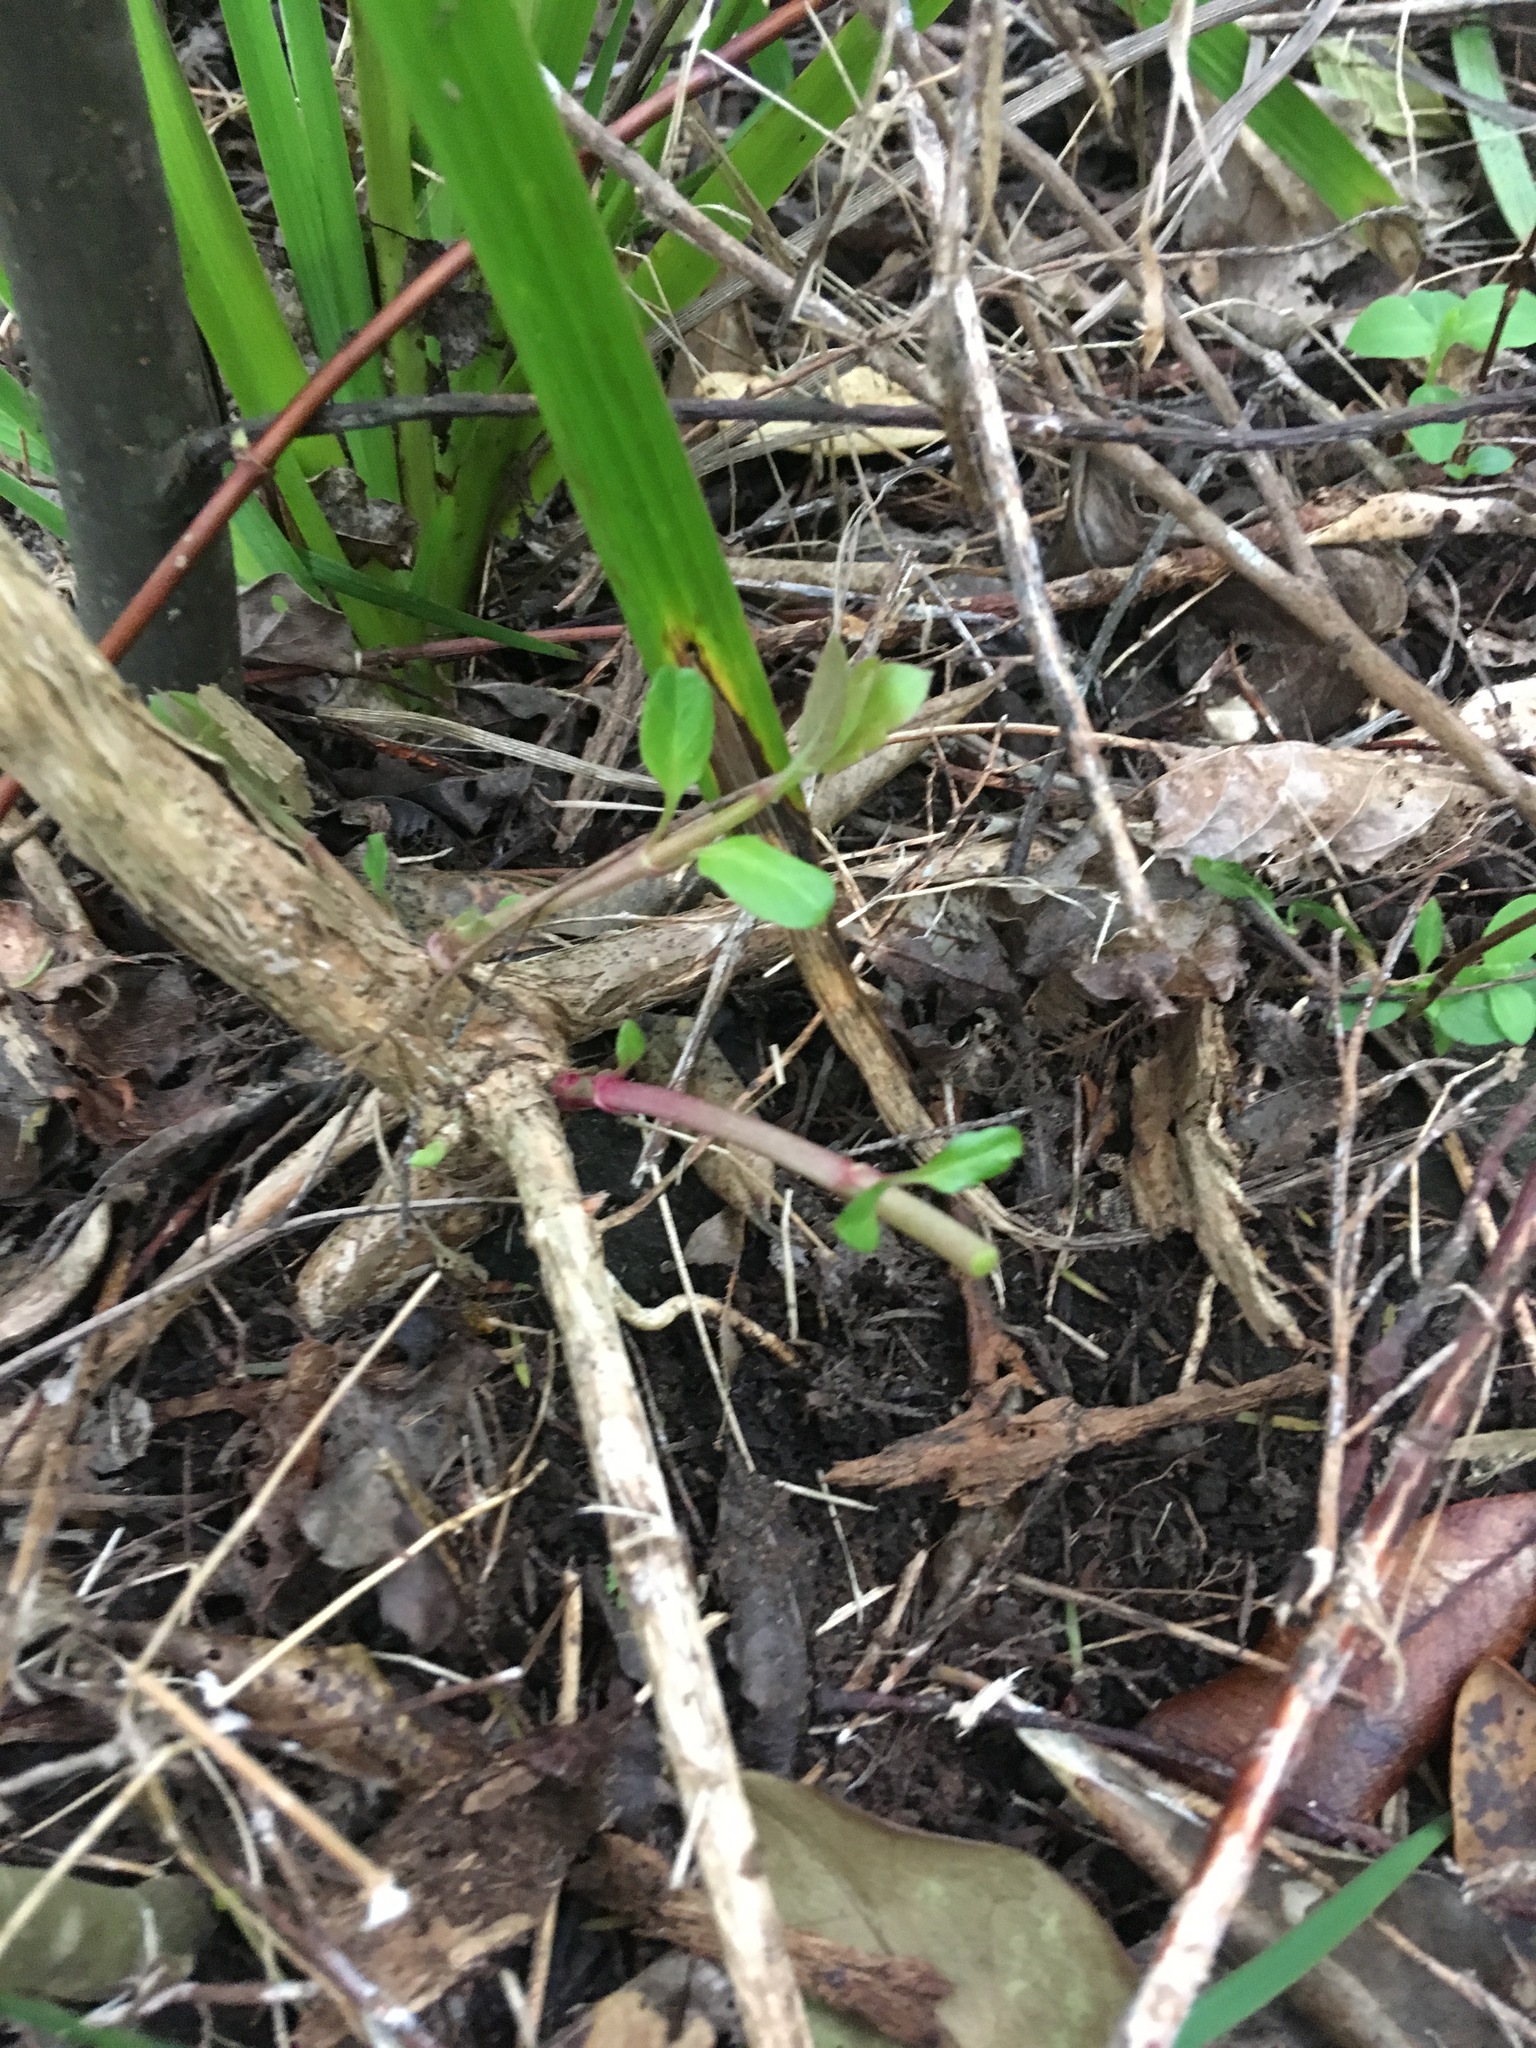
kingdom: Plantae
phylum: Tracheophyta
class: Magnoliopsida
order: Dipsacales
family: Caprifoliaceae
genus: Lonicera
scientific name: Lonicera japonica
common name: Japanese honeysuckle
